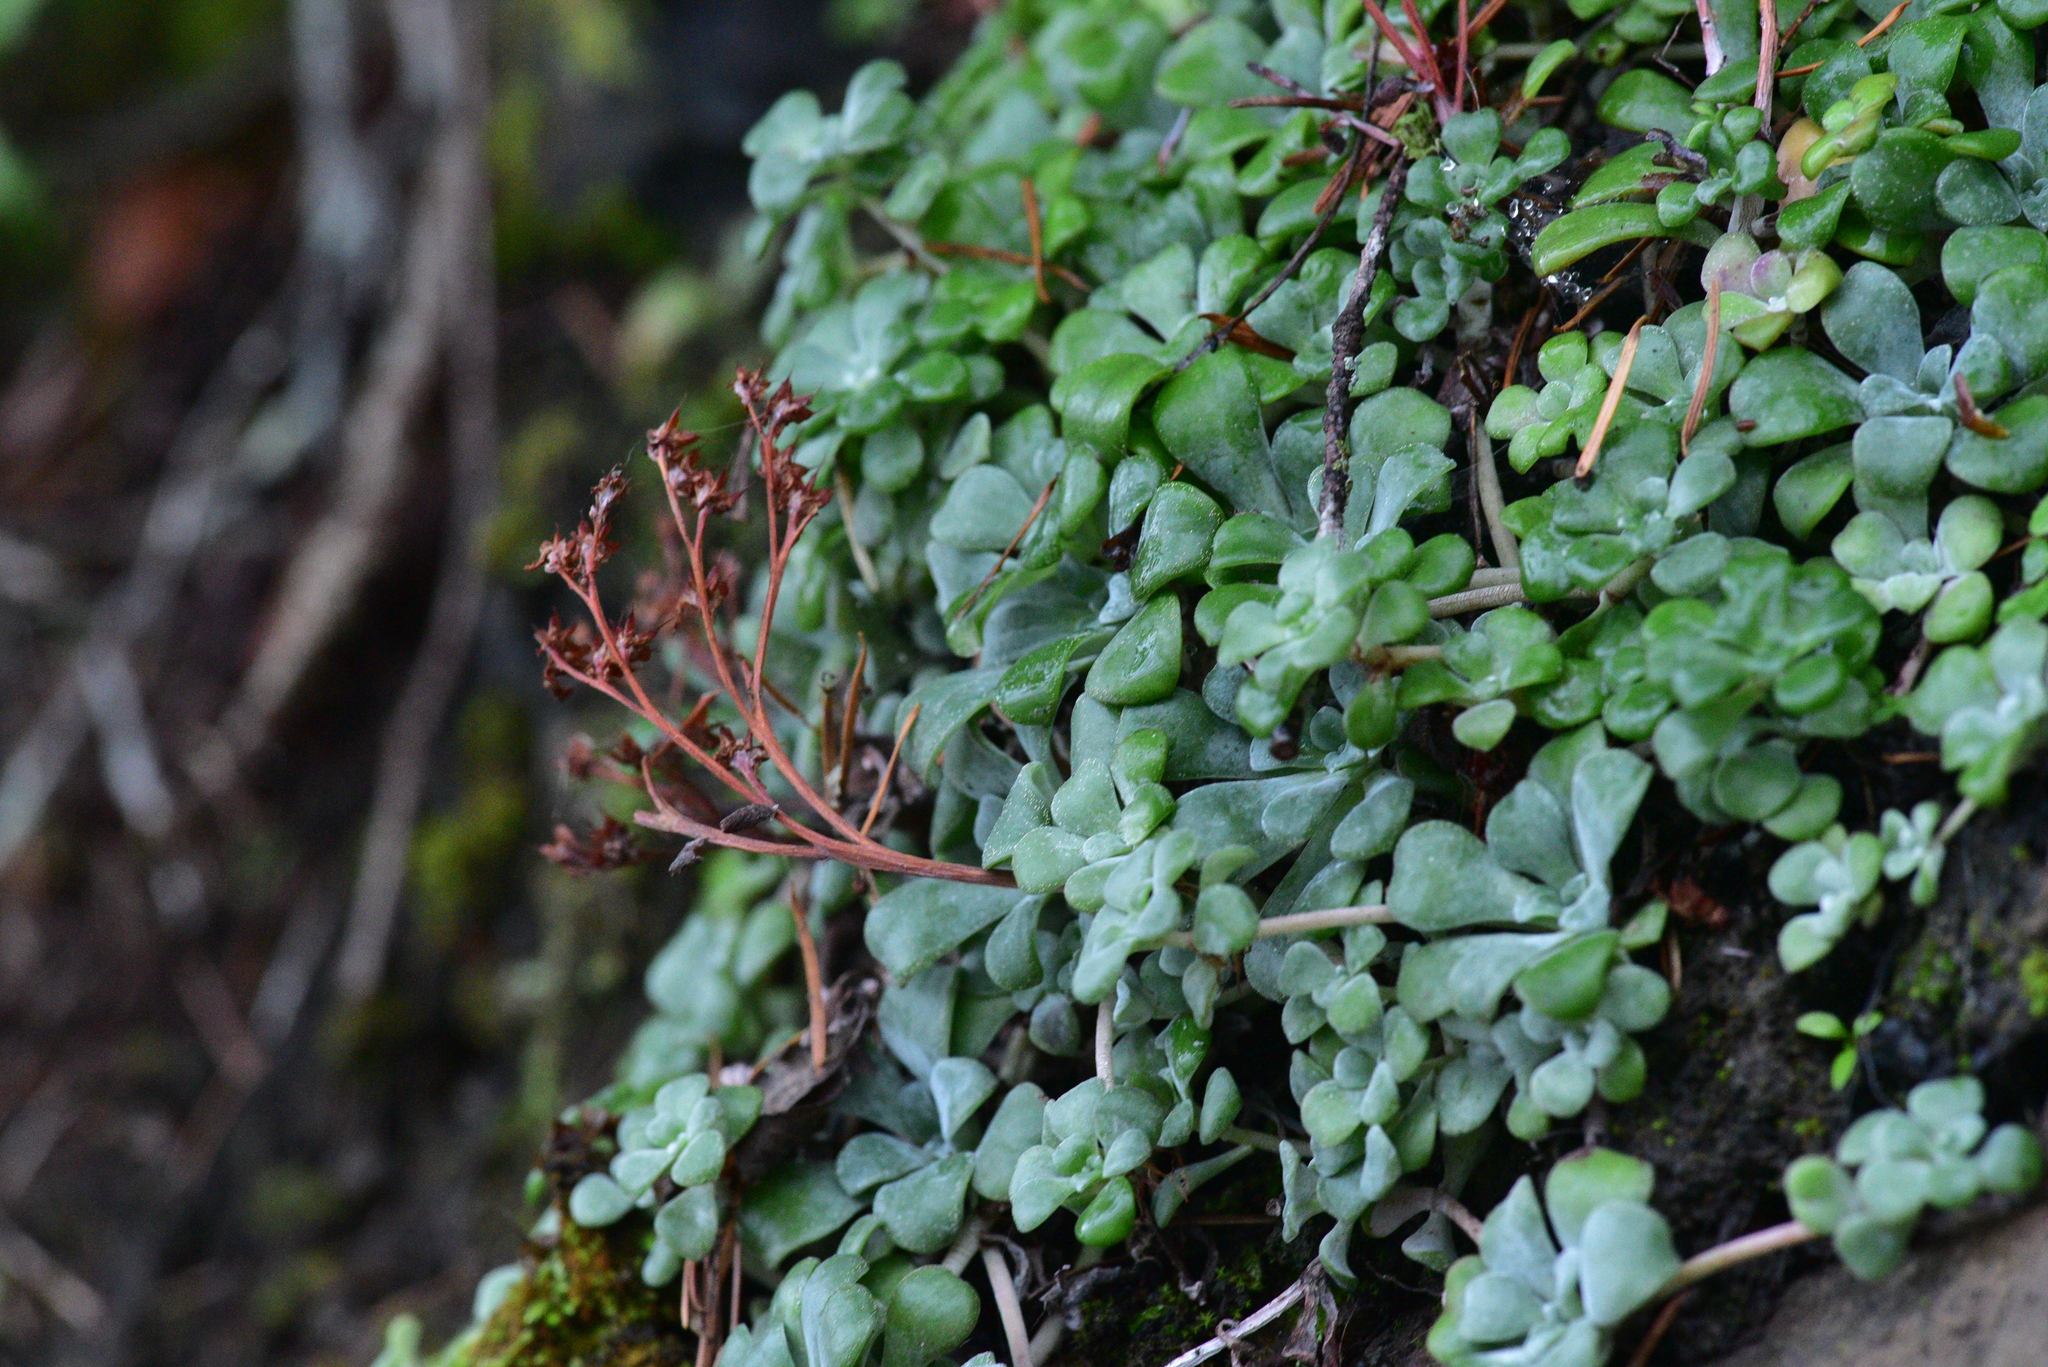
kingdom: Plantae
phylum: Tracheophyta
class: Magnoliopsida
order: Saxifragales
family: Crassulaceae
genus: Sedum
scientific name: Sedum spathulifolium
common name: Colorado stonecrop
